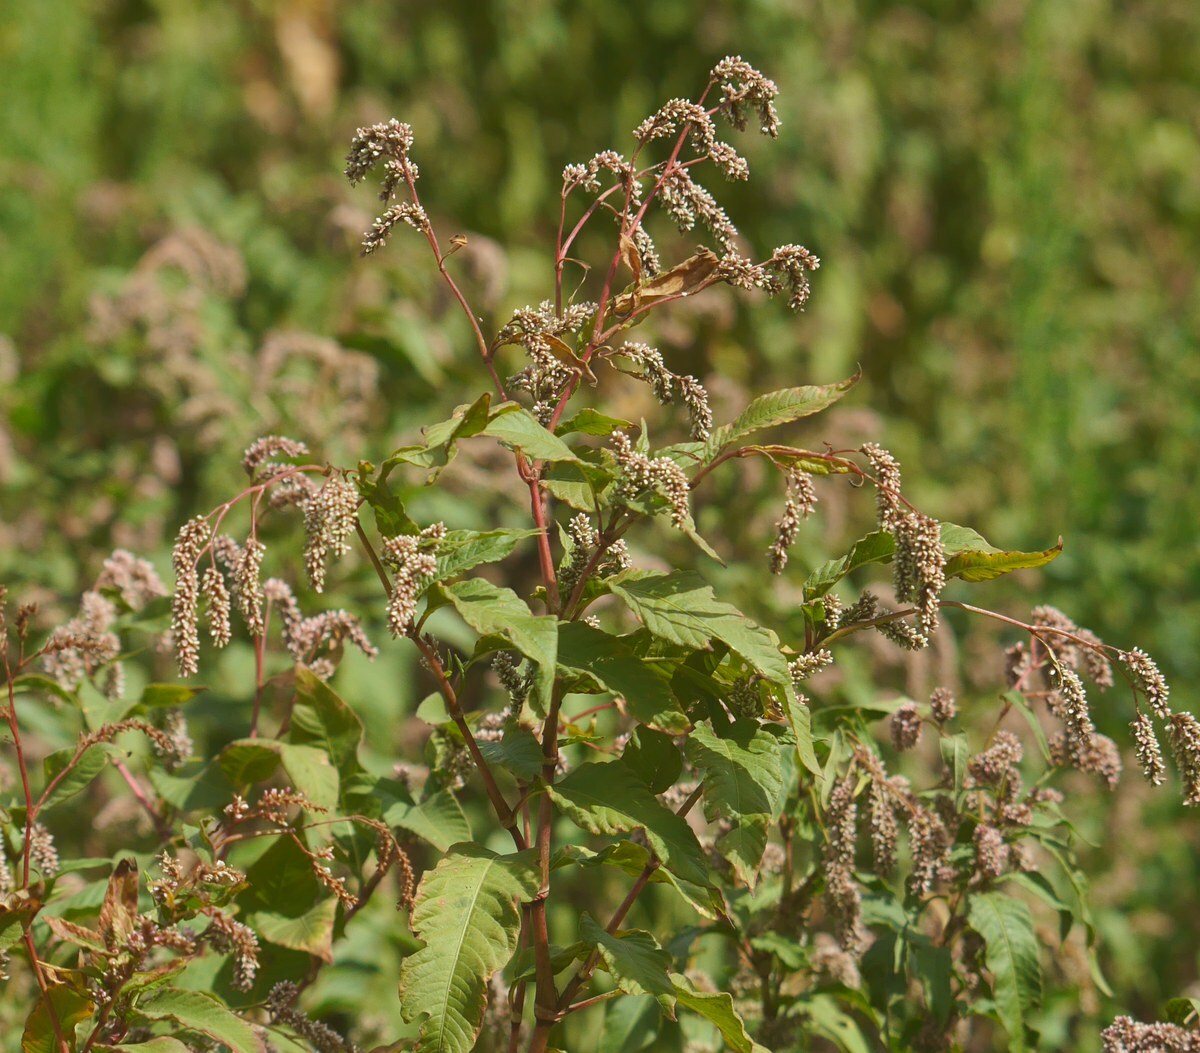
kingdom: Plantae
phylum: Tracheophyta
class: Magnoliopsida
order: Caryophyllales
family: Polygonaceae
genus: Persicaria
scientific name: Persicaria lapathifolia
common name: Curlytop knotweed
